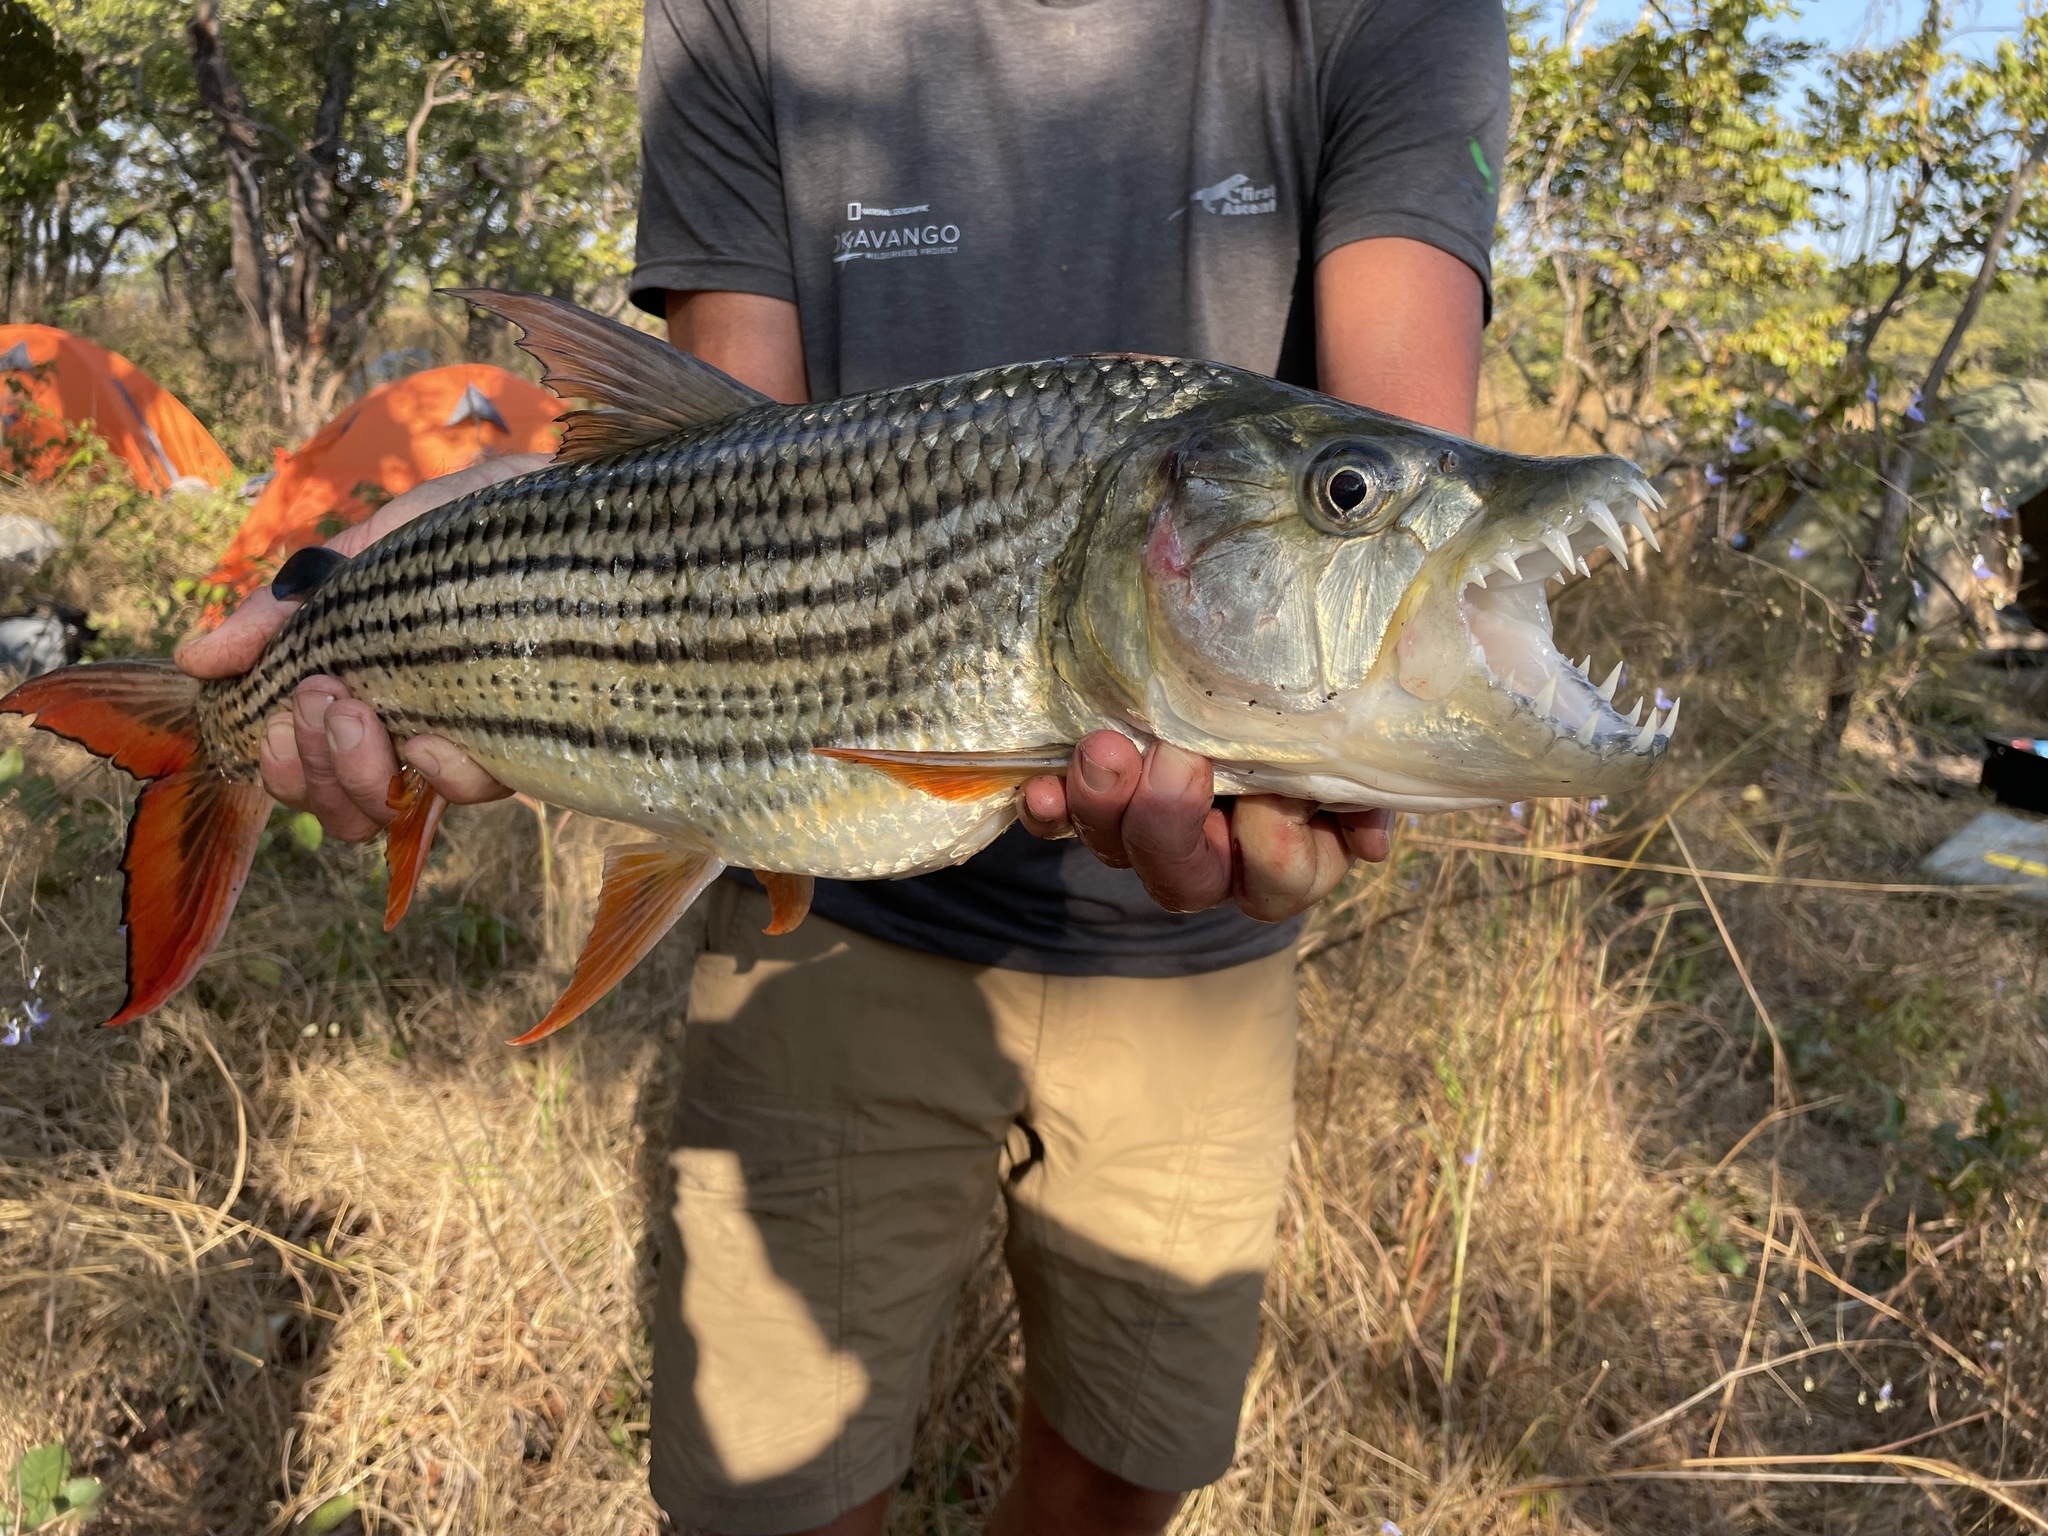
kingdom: Animalia
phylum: Chordata
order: Characiformes
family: Alestidae
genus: Hydrocynus
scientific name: Hydrocynus vittatus
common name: Tigerfish
